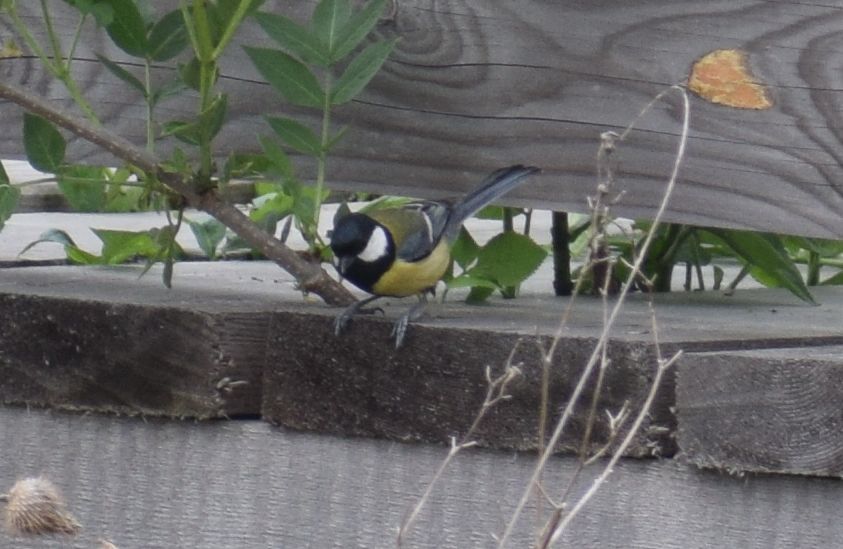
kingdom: Animalia
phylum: Chordata
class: Aves
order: Passeriformes
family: Paridae
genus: Parus
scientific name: Parus major
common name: Great tit
